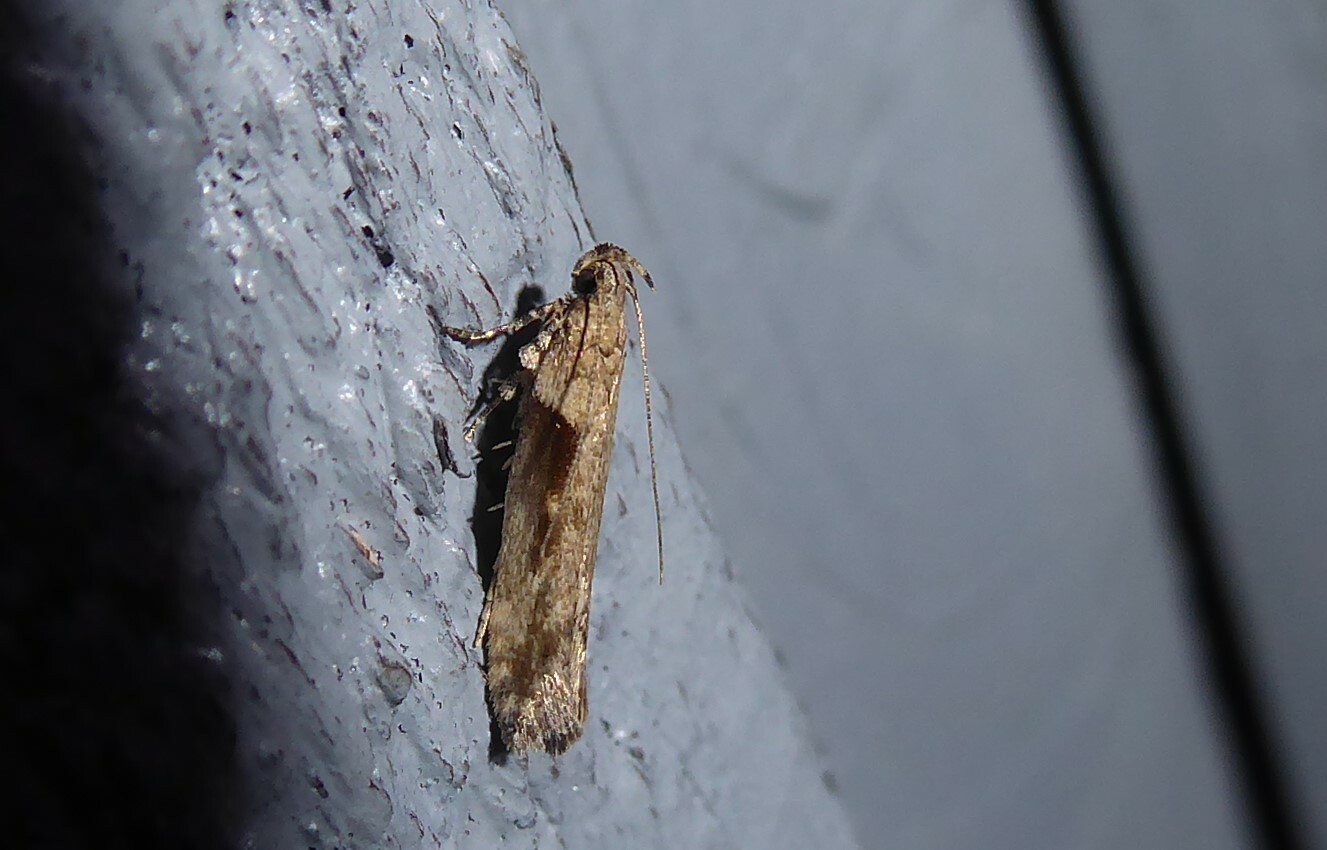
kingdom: Animalia
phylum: Arthropoda
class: Insecta
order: Lepidoptera
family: Gelechiidae
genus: Symmetrischema
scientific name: Symmetrischema tangolias
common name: Moth
